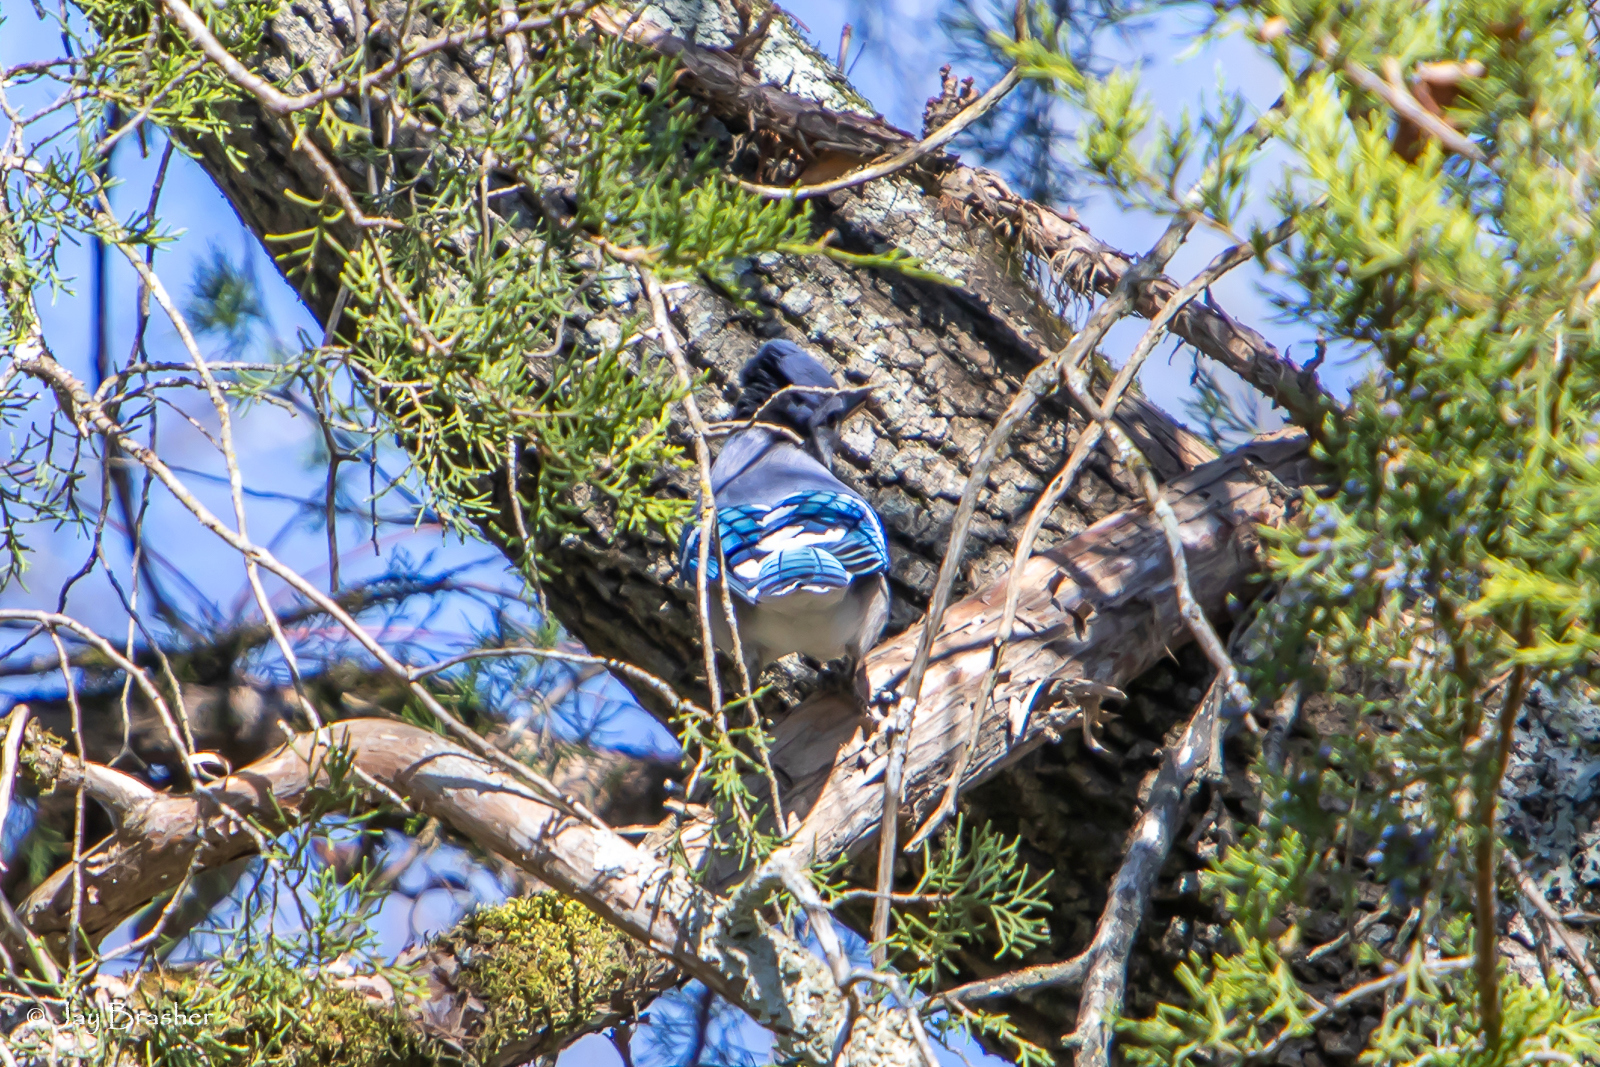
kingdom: Animalia
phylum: Chordata
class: Aves
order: Passeriformes
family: Corvidae
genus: Cyanocitta
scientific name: Cyanocitta cristata
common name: Blue jay
